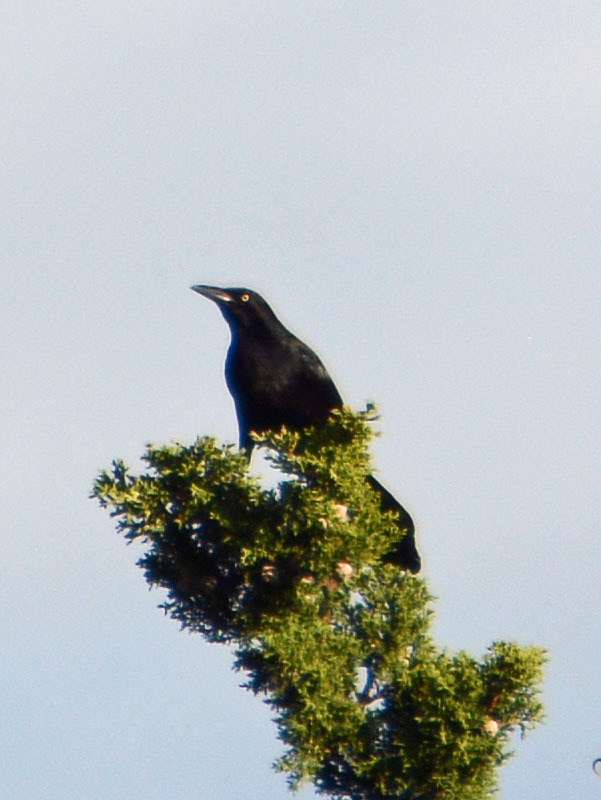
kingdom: Animalia
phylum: Chordata
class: Aves
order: Passeriformes
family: Icteridae
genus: Quiscalus
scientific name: Quiscalus mexicanus
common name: Great-tailed grackle
